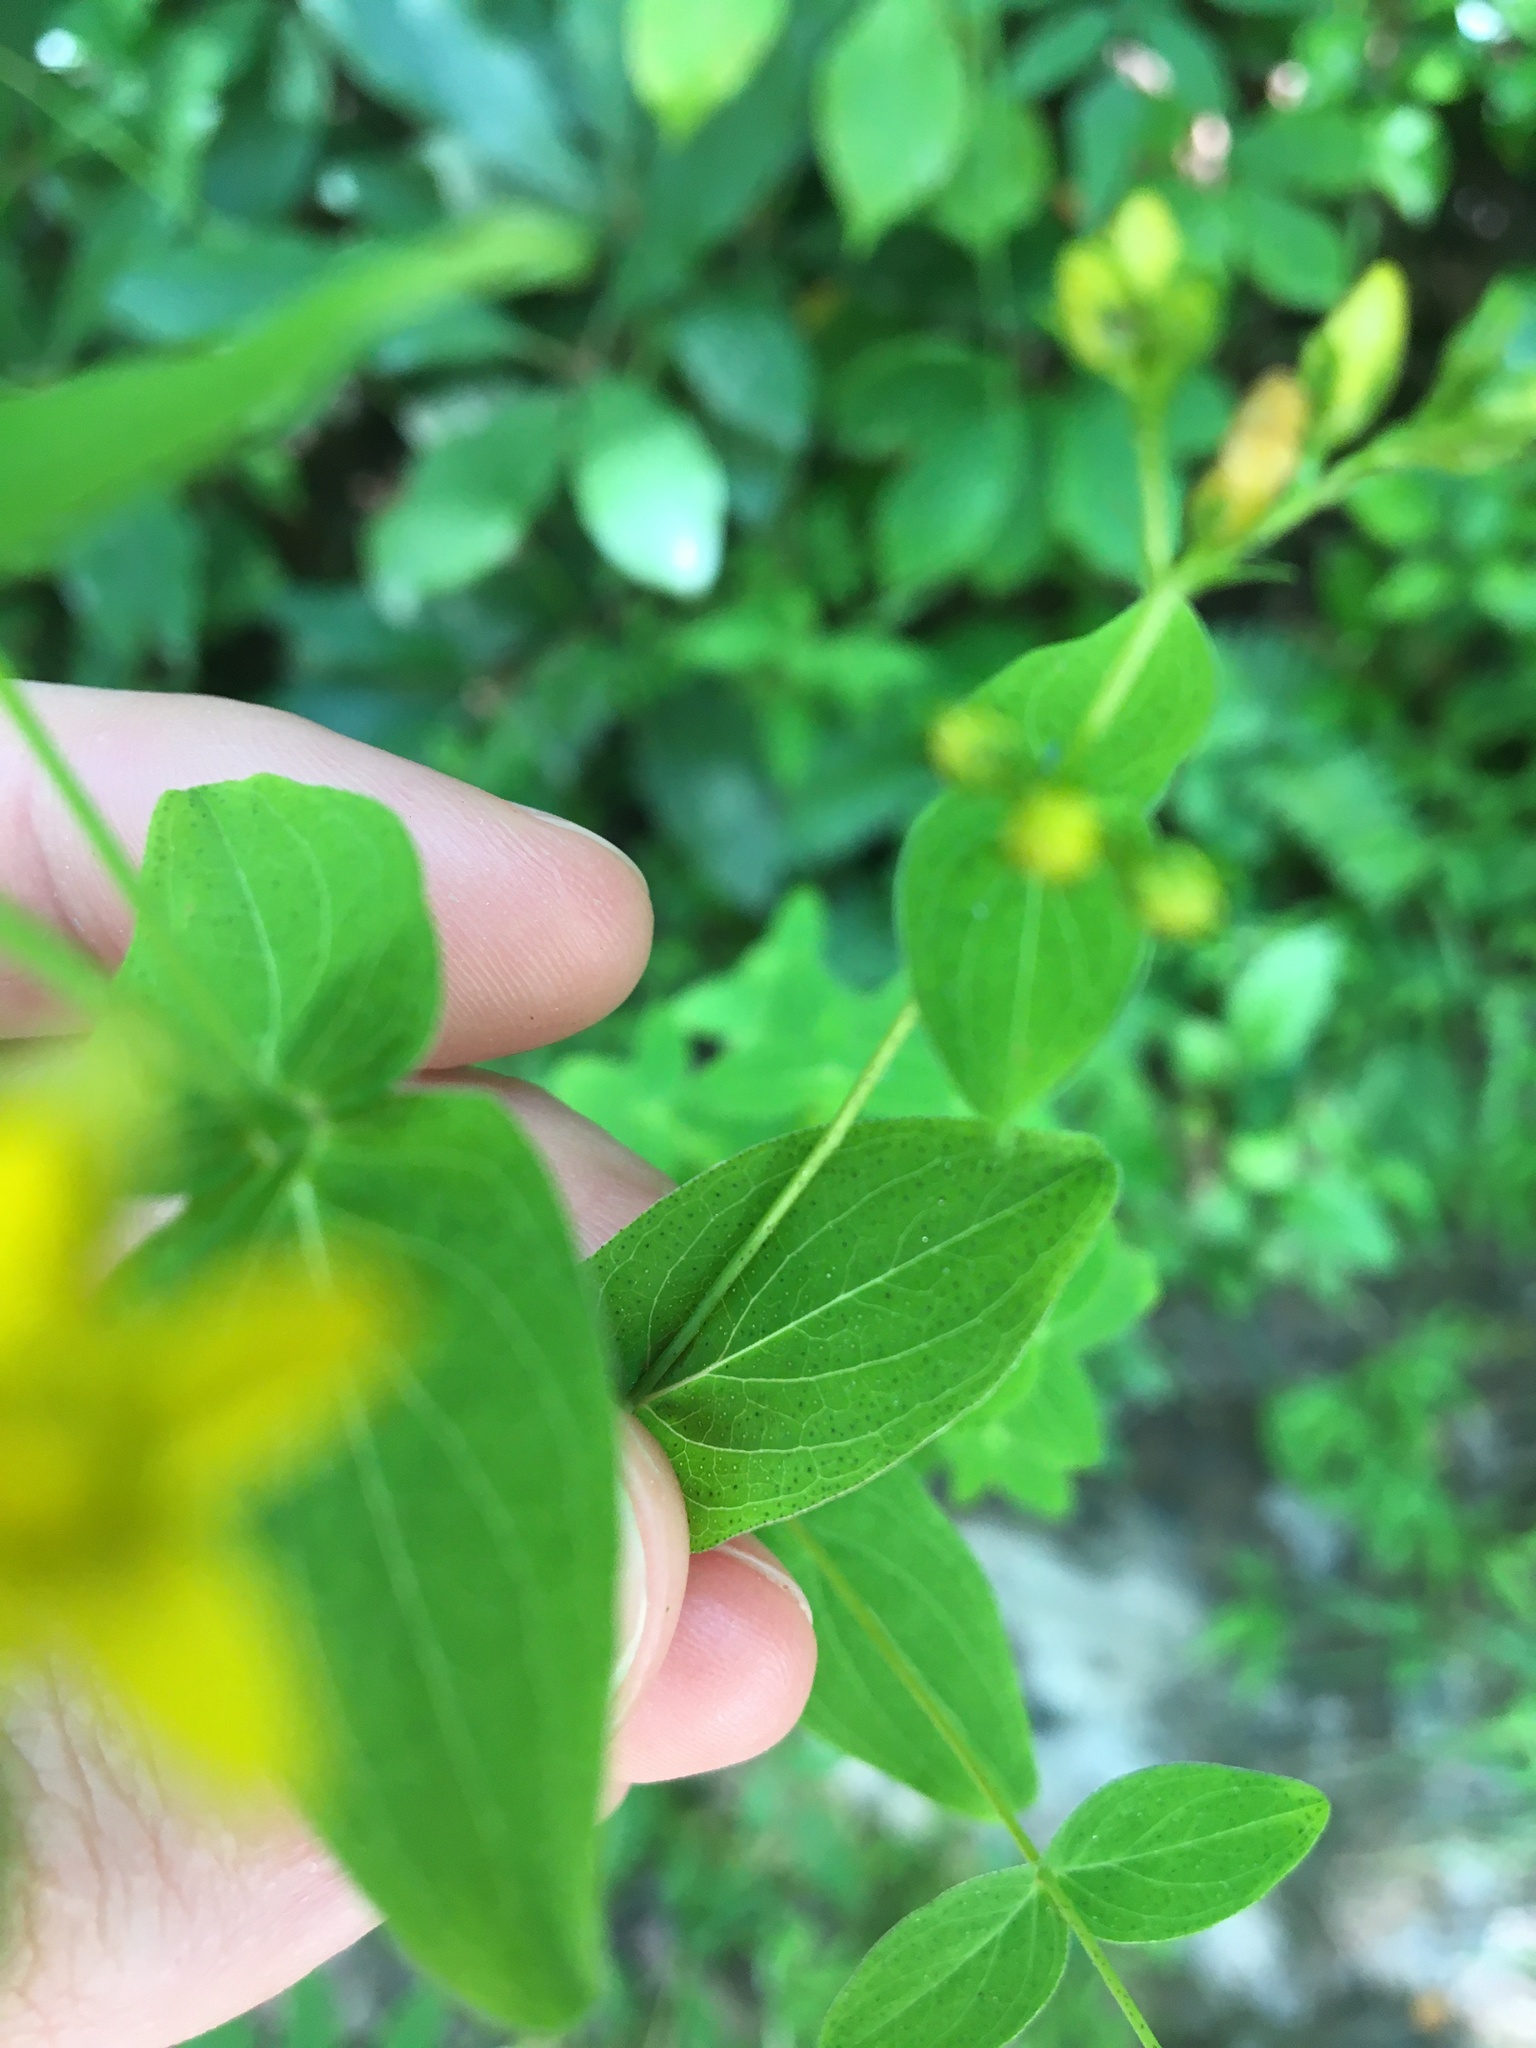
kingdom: Plantae
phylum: Tracheophyta
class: Magnoliopsida
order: Malpighiales
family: Hypericaceae
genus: Hypericum
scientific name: Hypericum punctatum
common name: Spotted st. john's-wort
